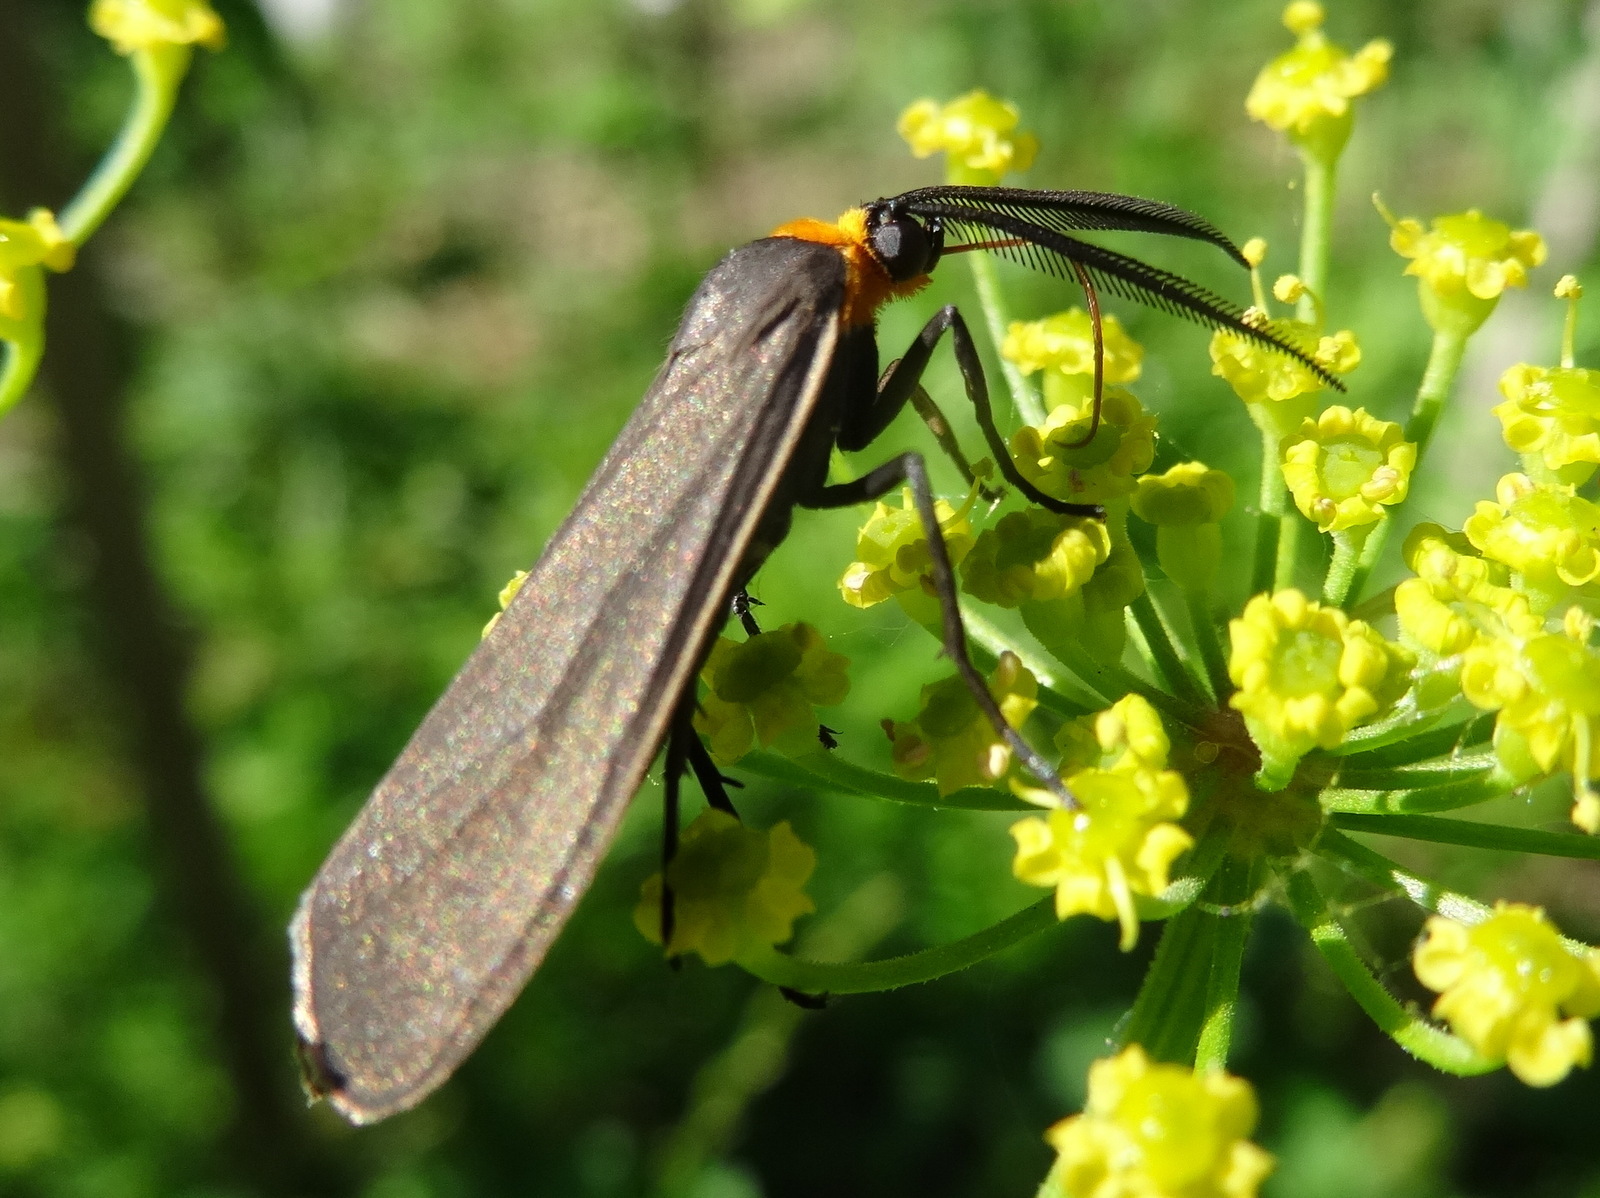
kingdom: Animalia
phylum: Arthropoda
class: Insecta
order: Lepidoptera
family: Erebidae
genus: Cisseps
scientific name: Cisseps fulvicollis
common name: Yellow-collared scape moth
